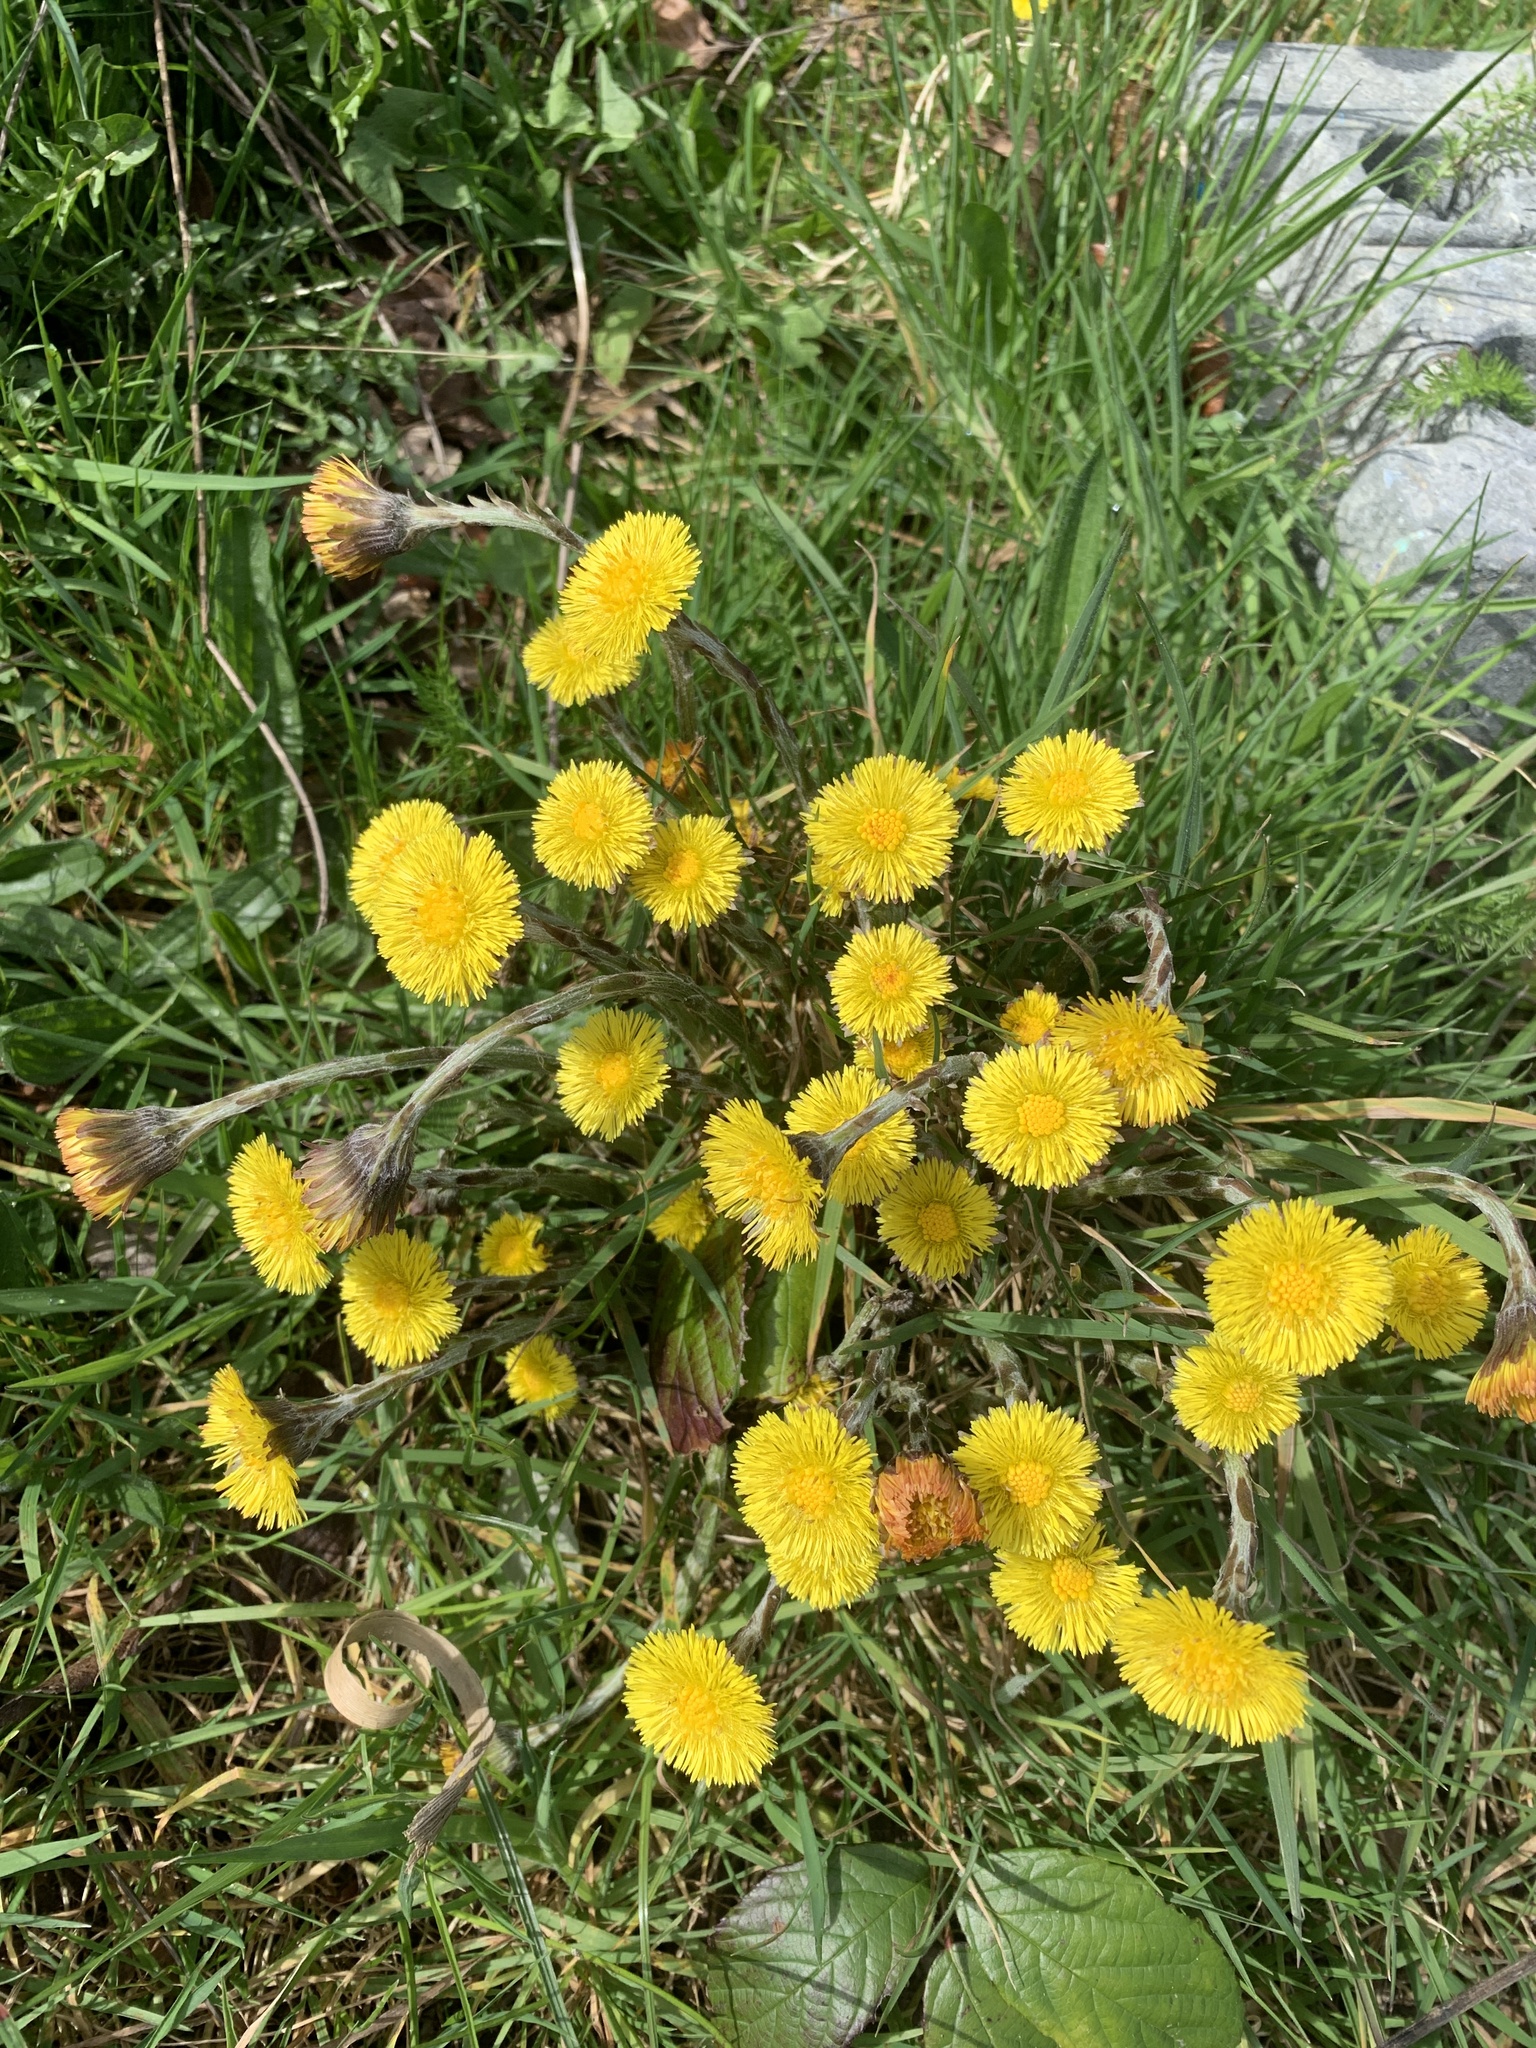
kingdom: Plantae
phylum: Tracheophyta
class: Magnoliopsida
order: Asterales
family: Asteraceae
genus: Tussilago
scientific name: Tussilago farfara
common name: Coltsfoot
